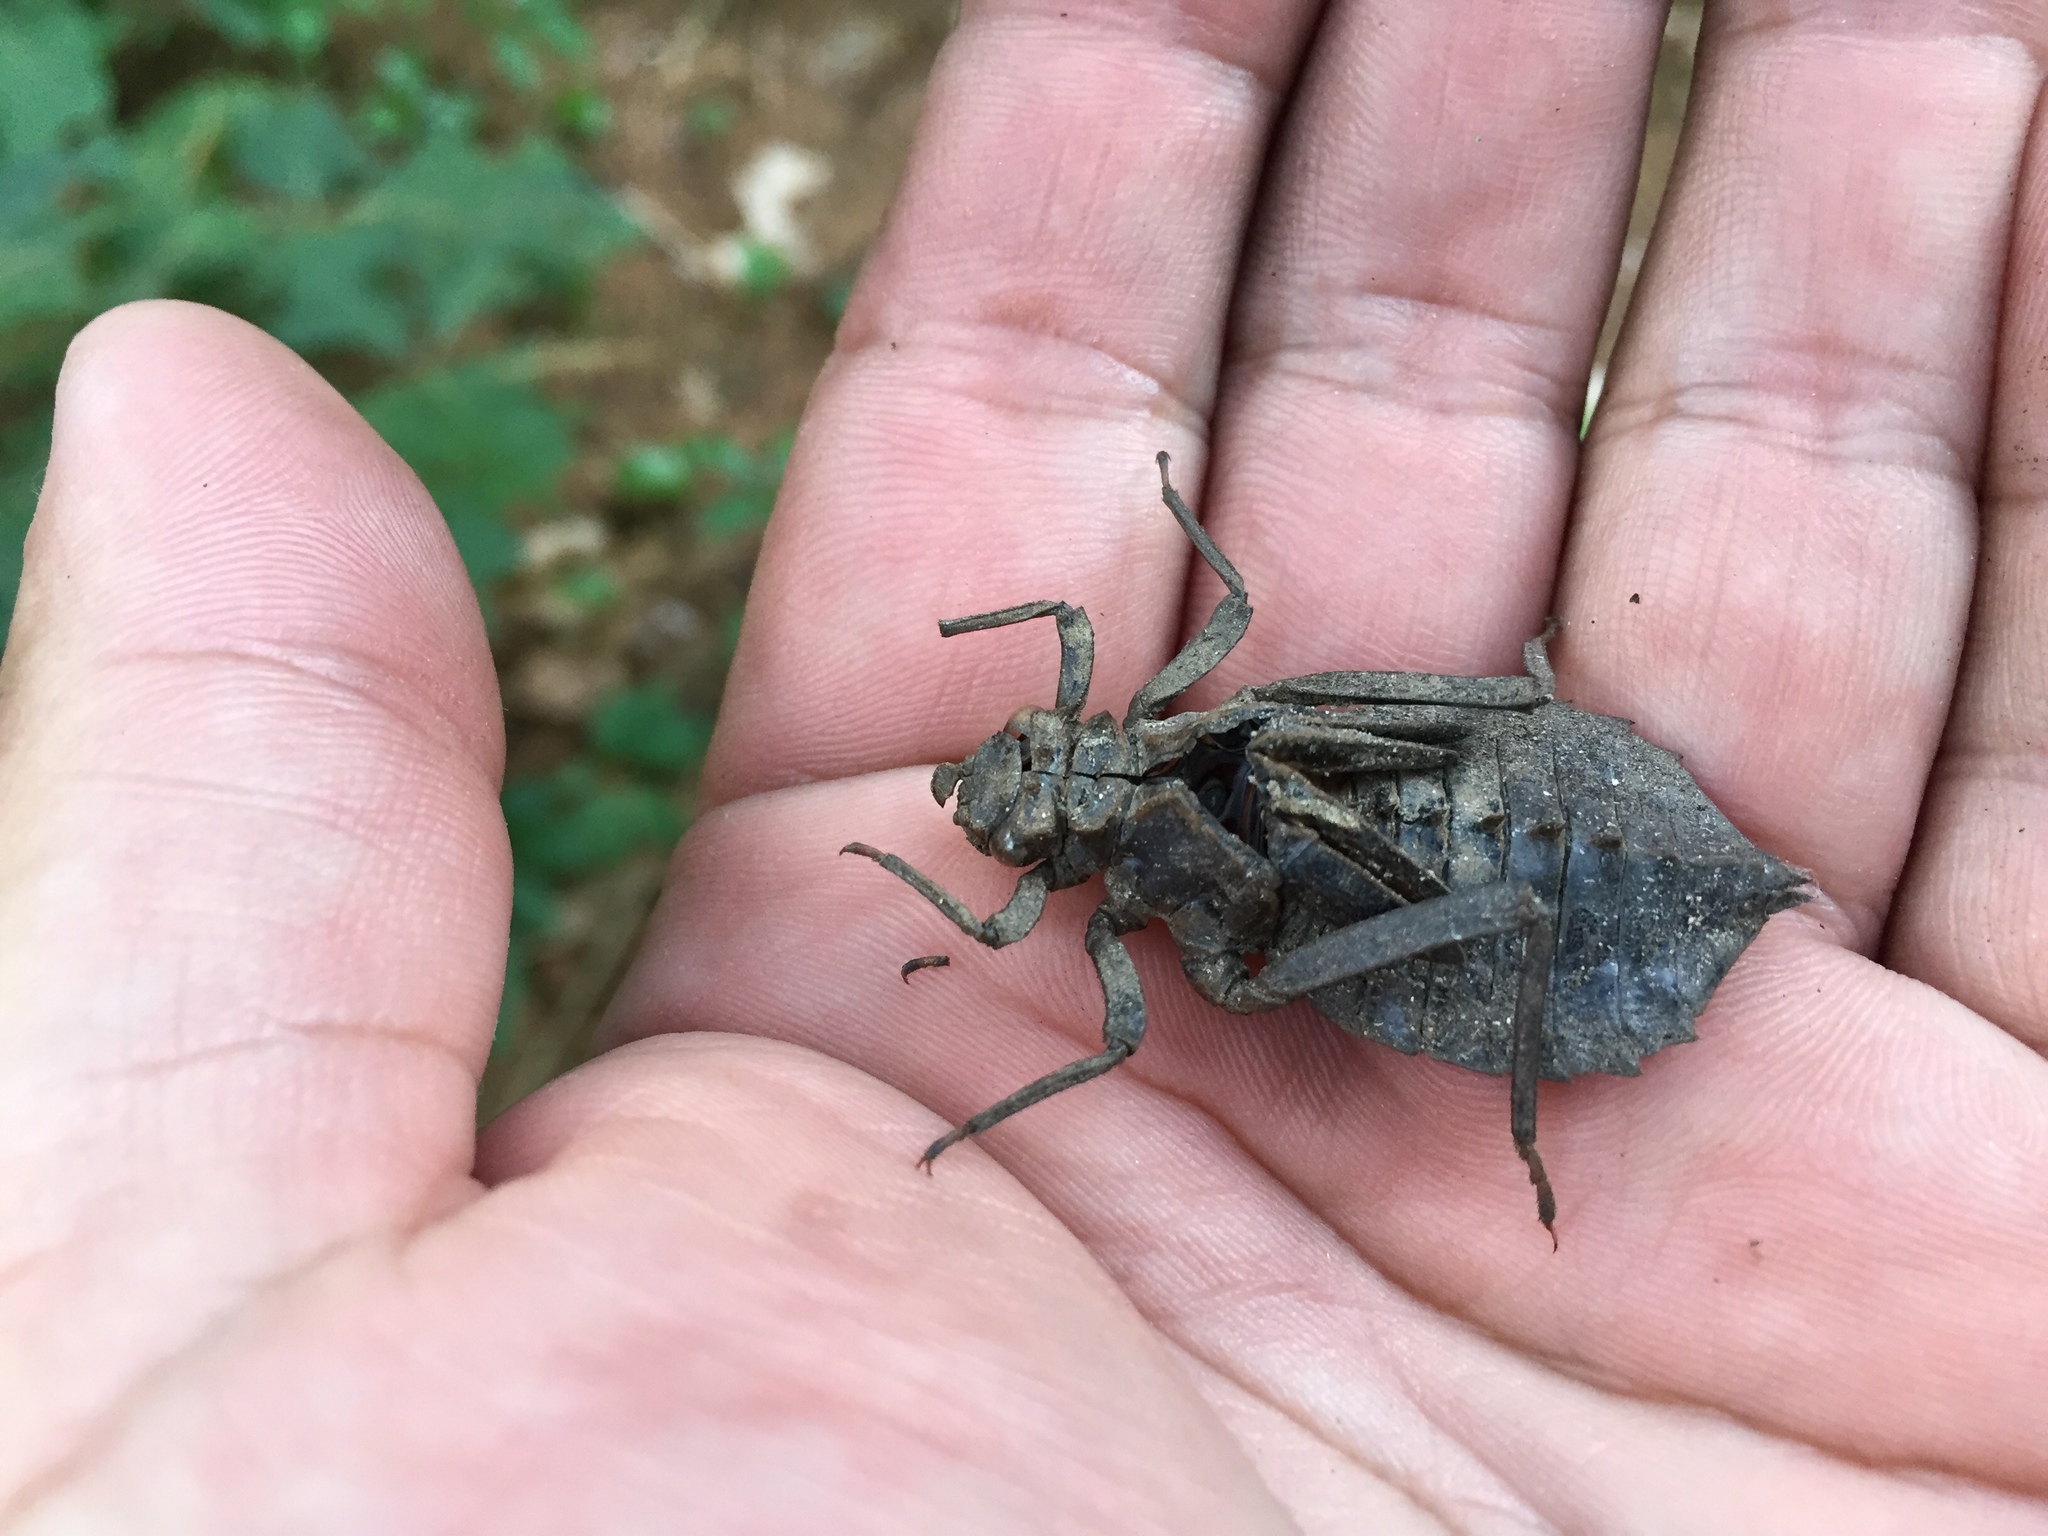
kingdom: Animalia
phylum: Arthropoda
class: Insecta
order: Odonata
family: Gomphidae
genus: Hagenius
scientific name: Hagenius brevistylus
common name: Dragonhunter
